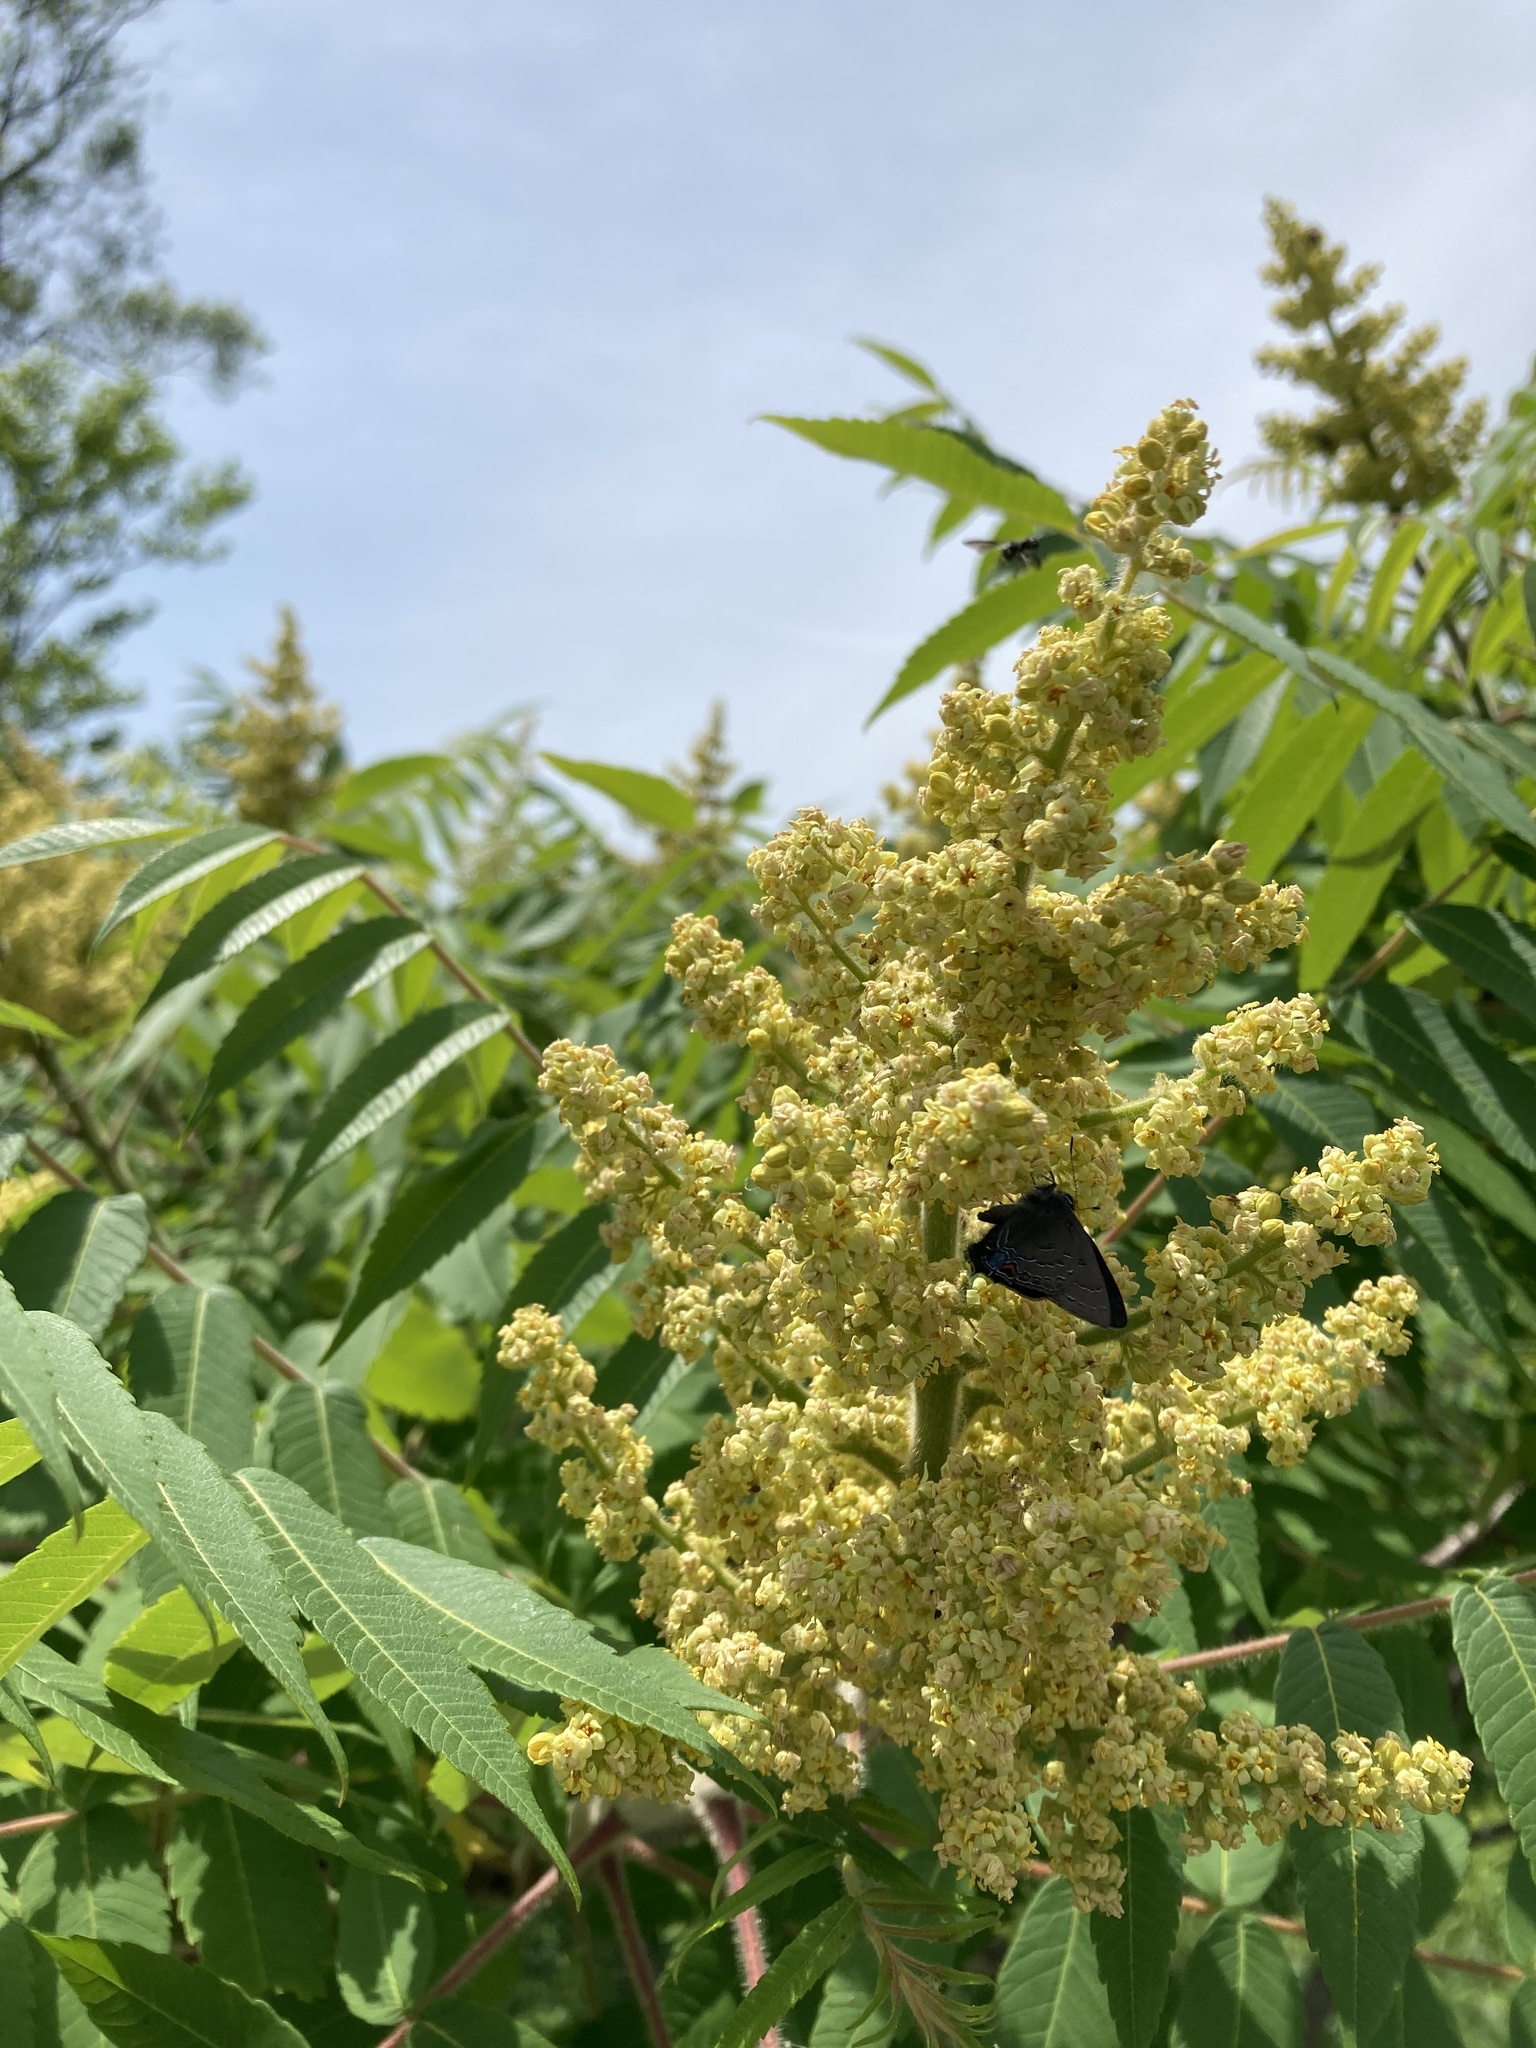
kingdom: Animalia
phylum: Arthropoda
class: Insecta
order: Lepidoptera
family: Lycaenidae
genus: Satyrium
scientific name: Satyrium calanus
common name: Banded hairstreak
